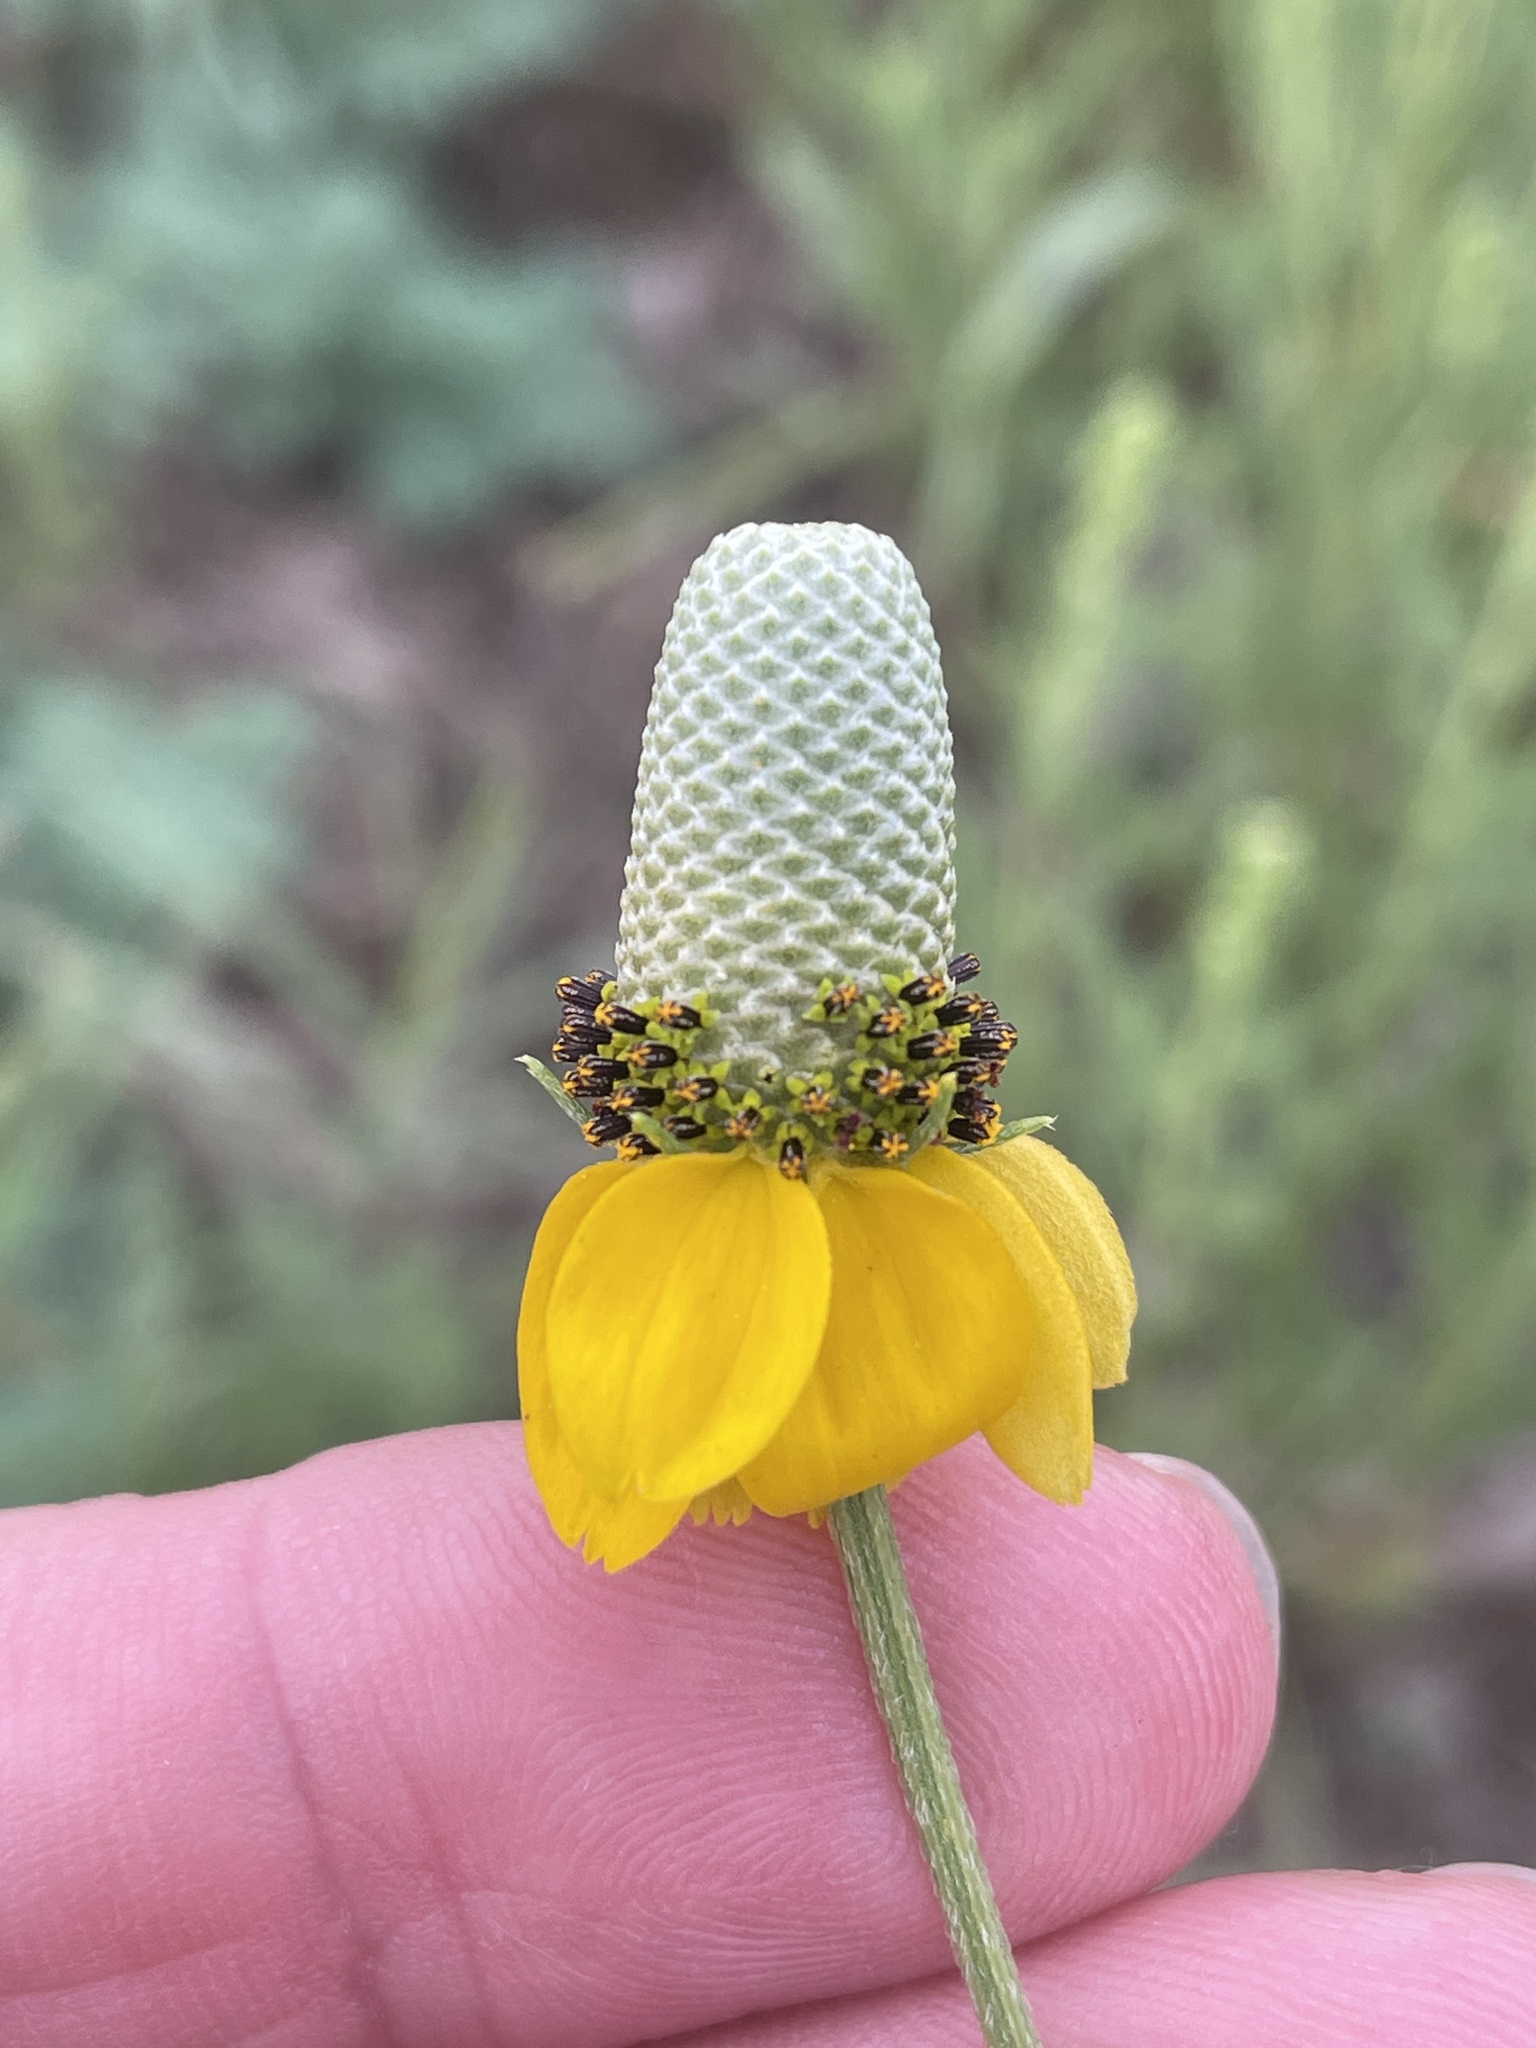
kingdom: Plantae
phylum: Tracheophyta
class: Magnoliopsida
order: Asterales
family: Asteraceae
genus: Ratibida
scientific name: Ratibida columnifera
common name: Prairie coneflower
